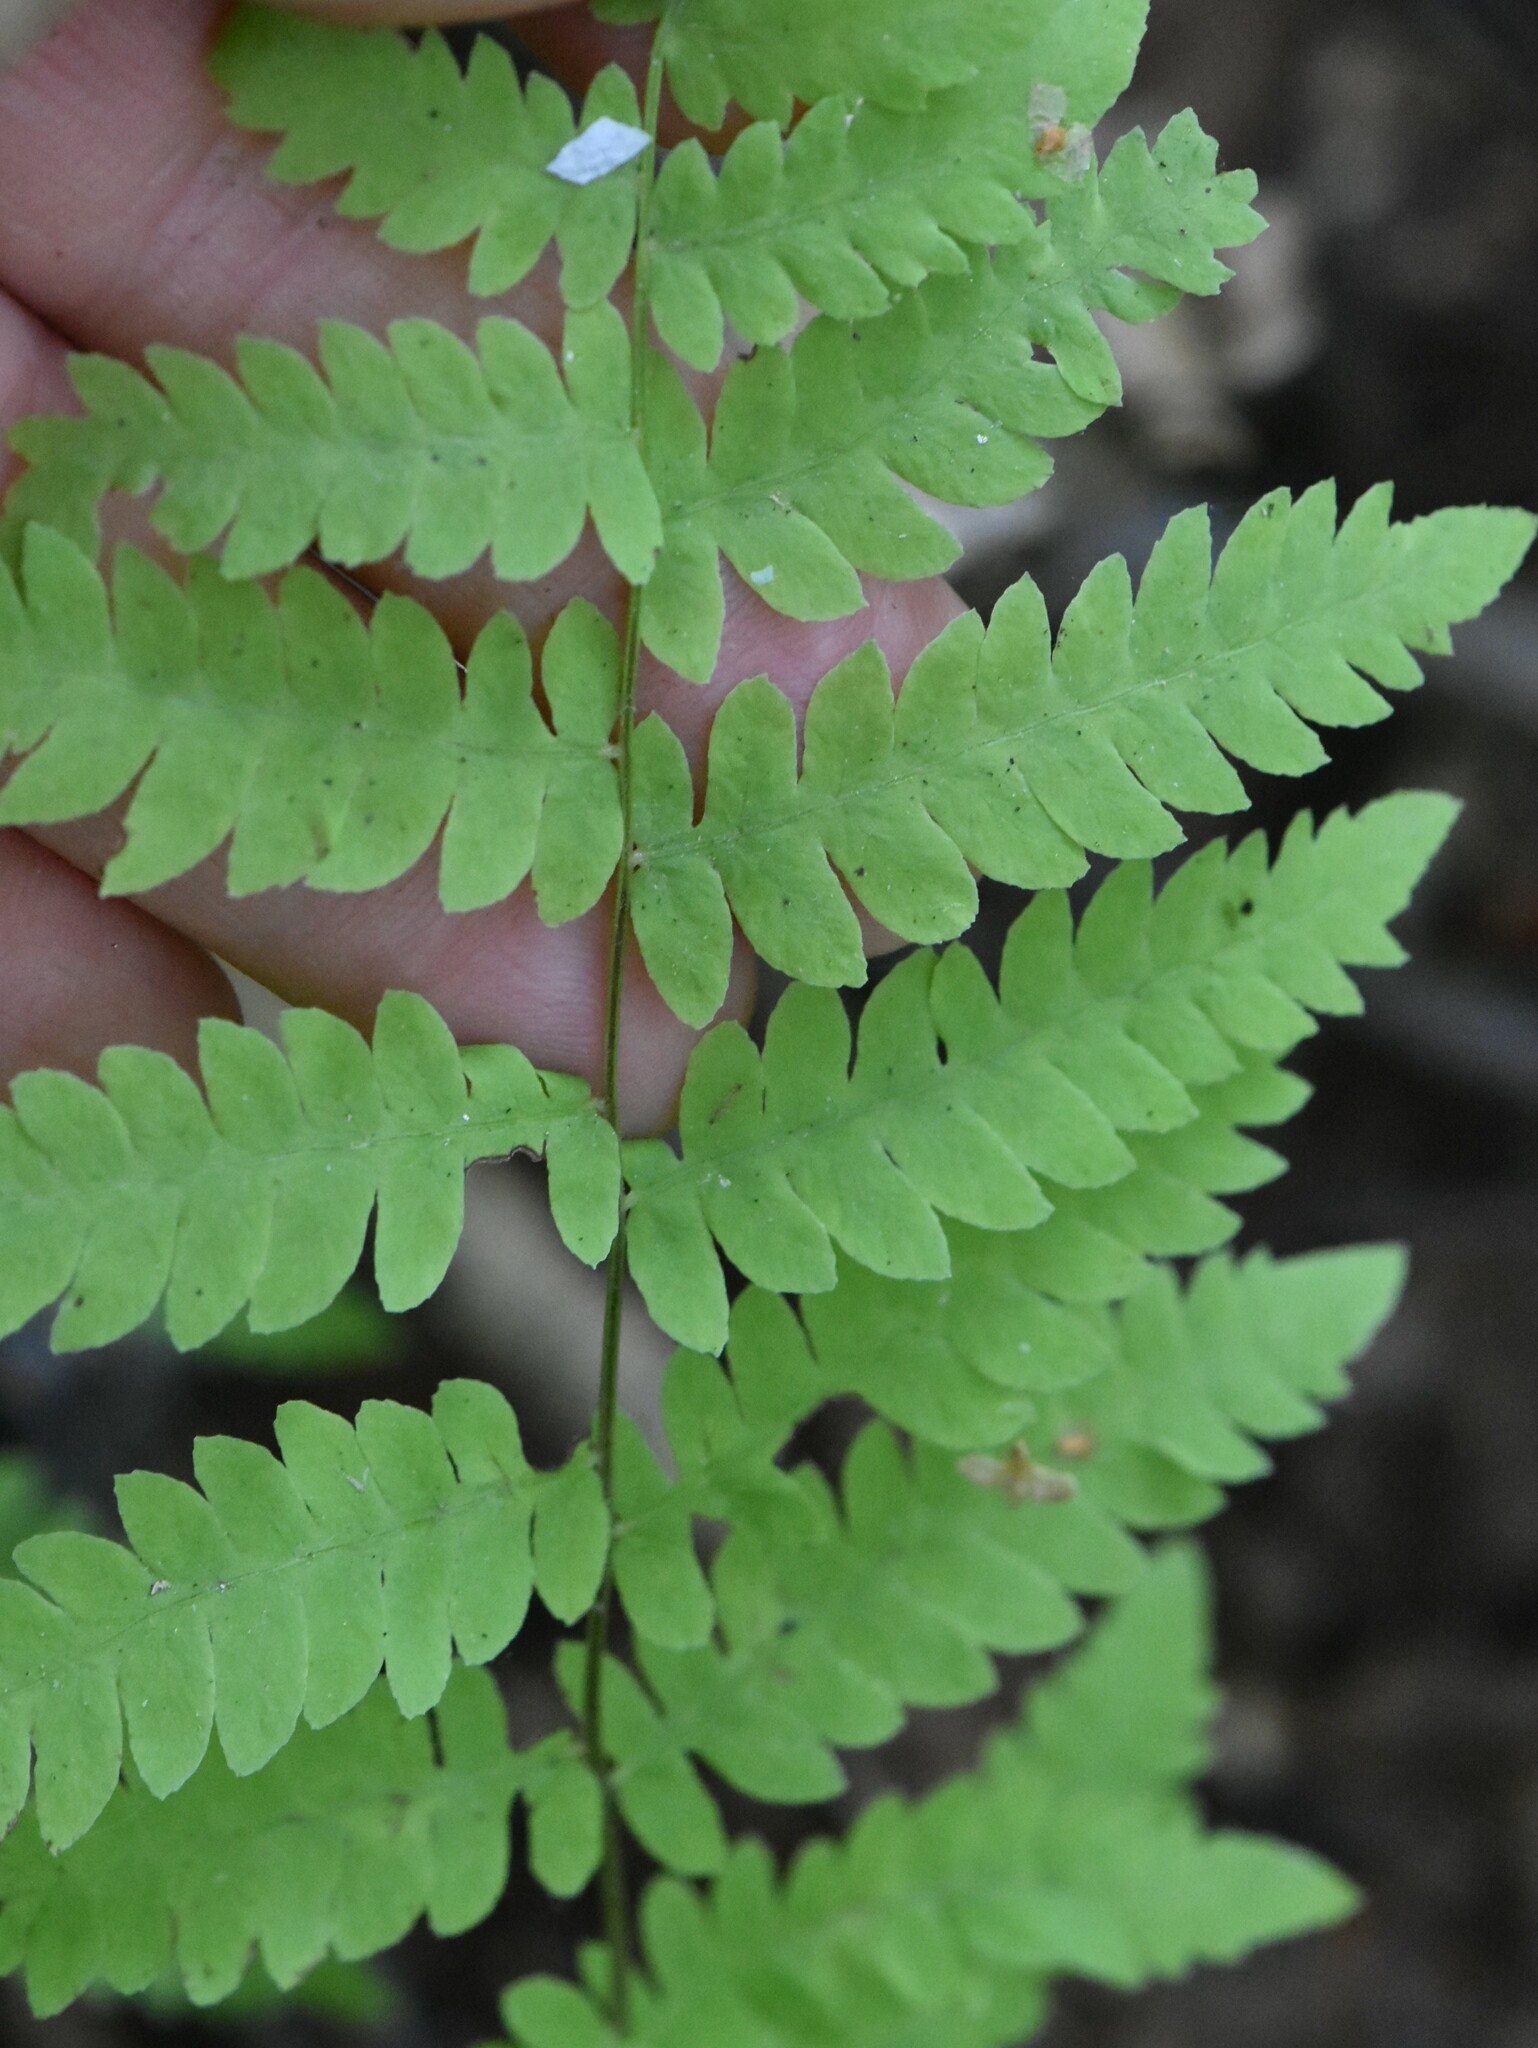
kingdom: Plantae
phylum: Tracheophyta
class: Polypodiopsida
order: Polypodiales
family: Thelypteridaceae
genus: Thelypteris
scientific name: Thelypteris palustris
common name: Marsh fern
